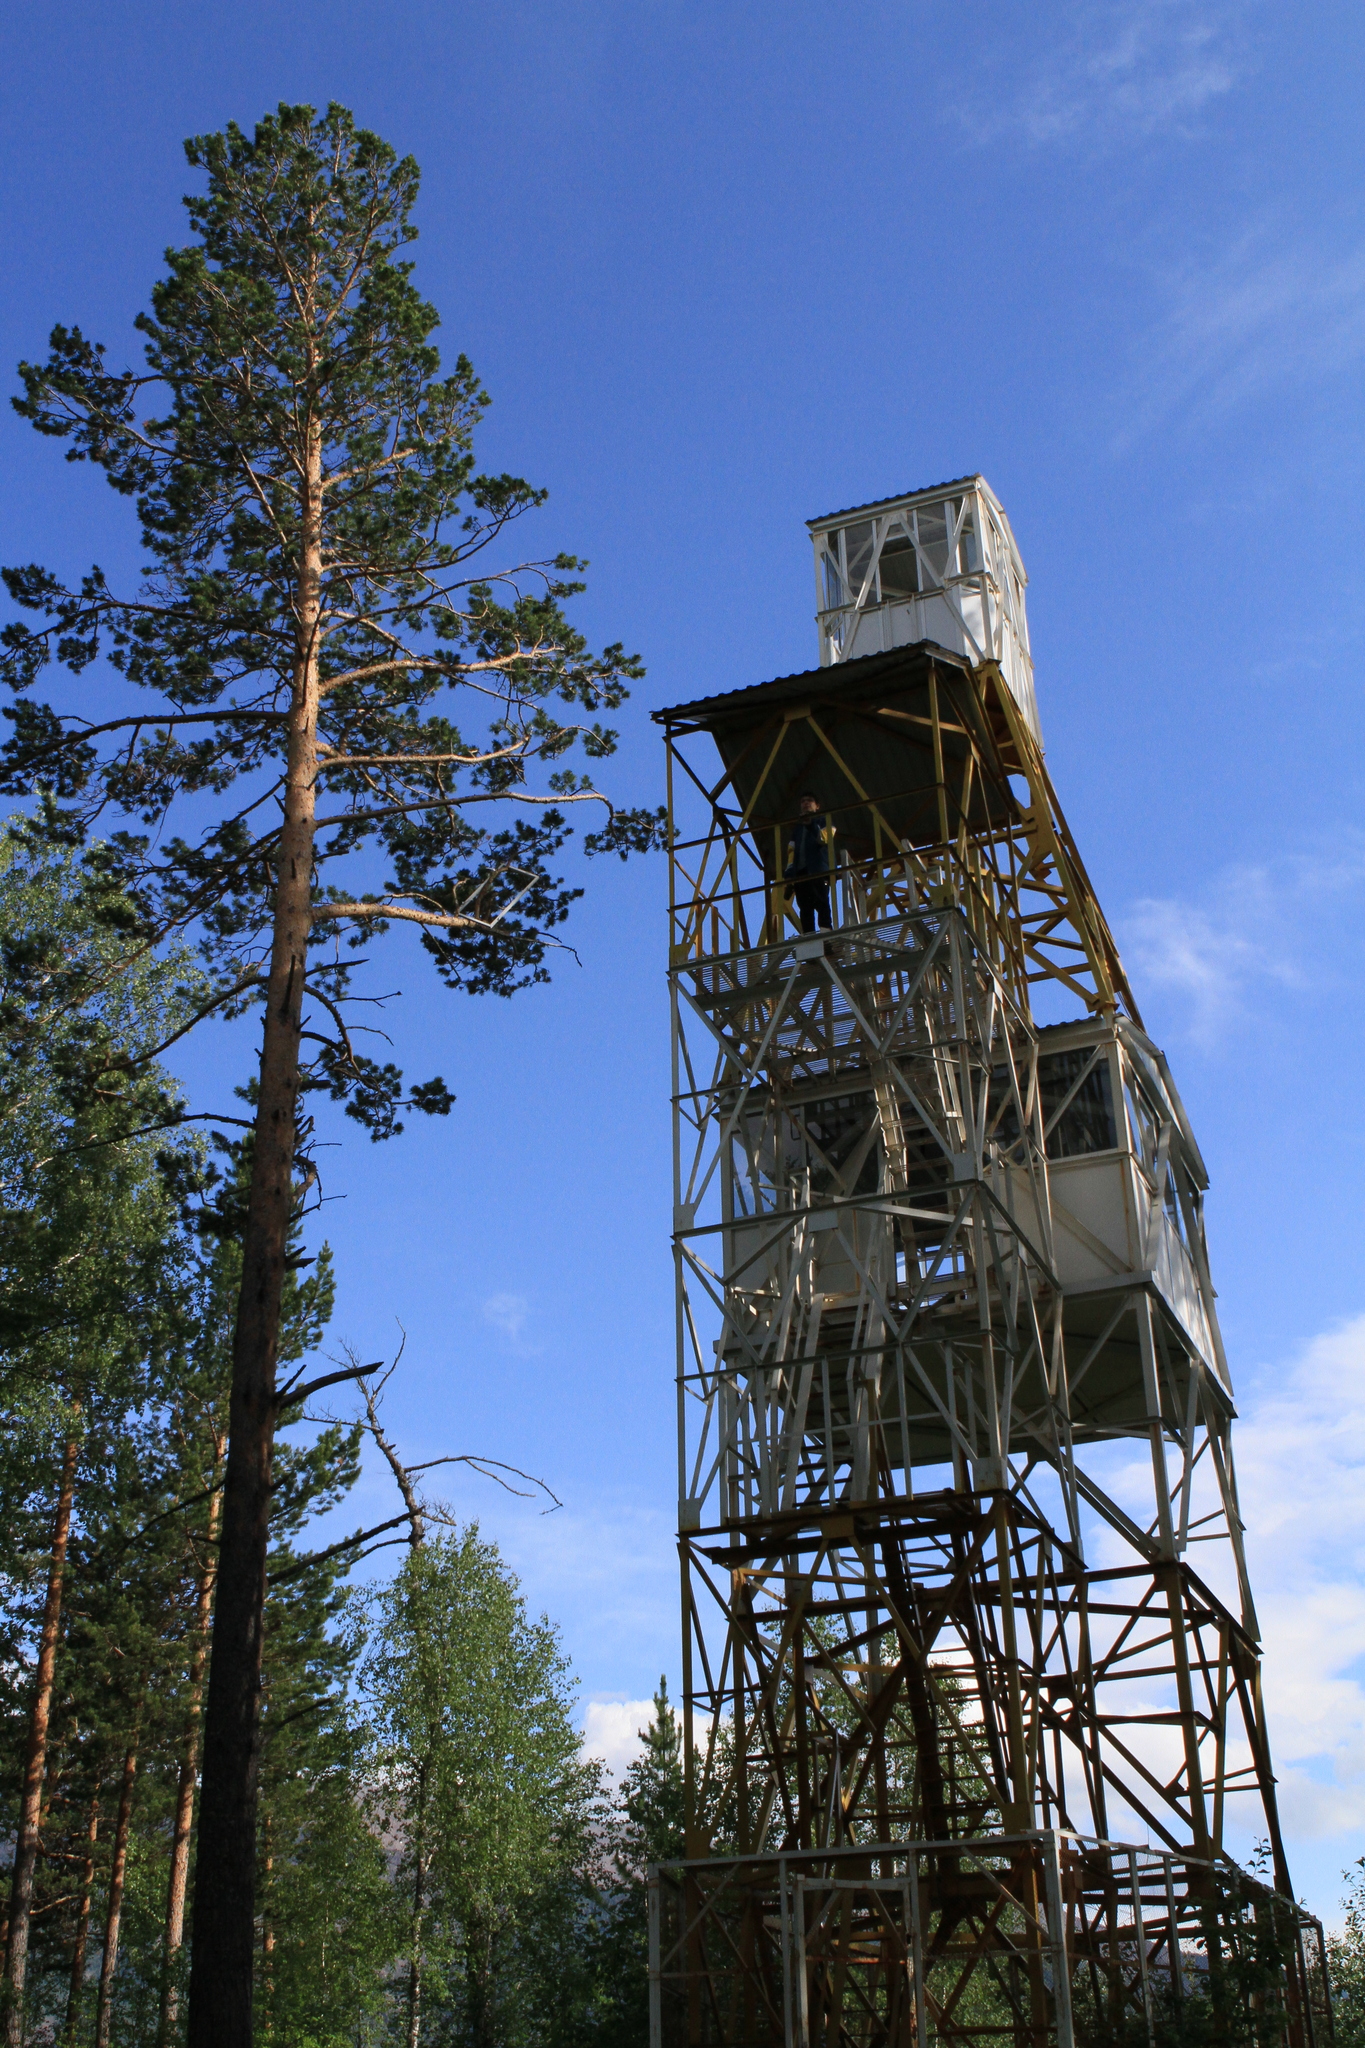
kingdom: Plantae
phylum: Tracheophyta
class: Pinopsida
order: Pinales
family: Pinaceae
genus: Pinus
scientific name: Pinus sylvestris
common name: Scots pine
